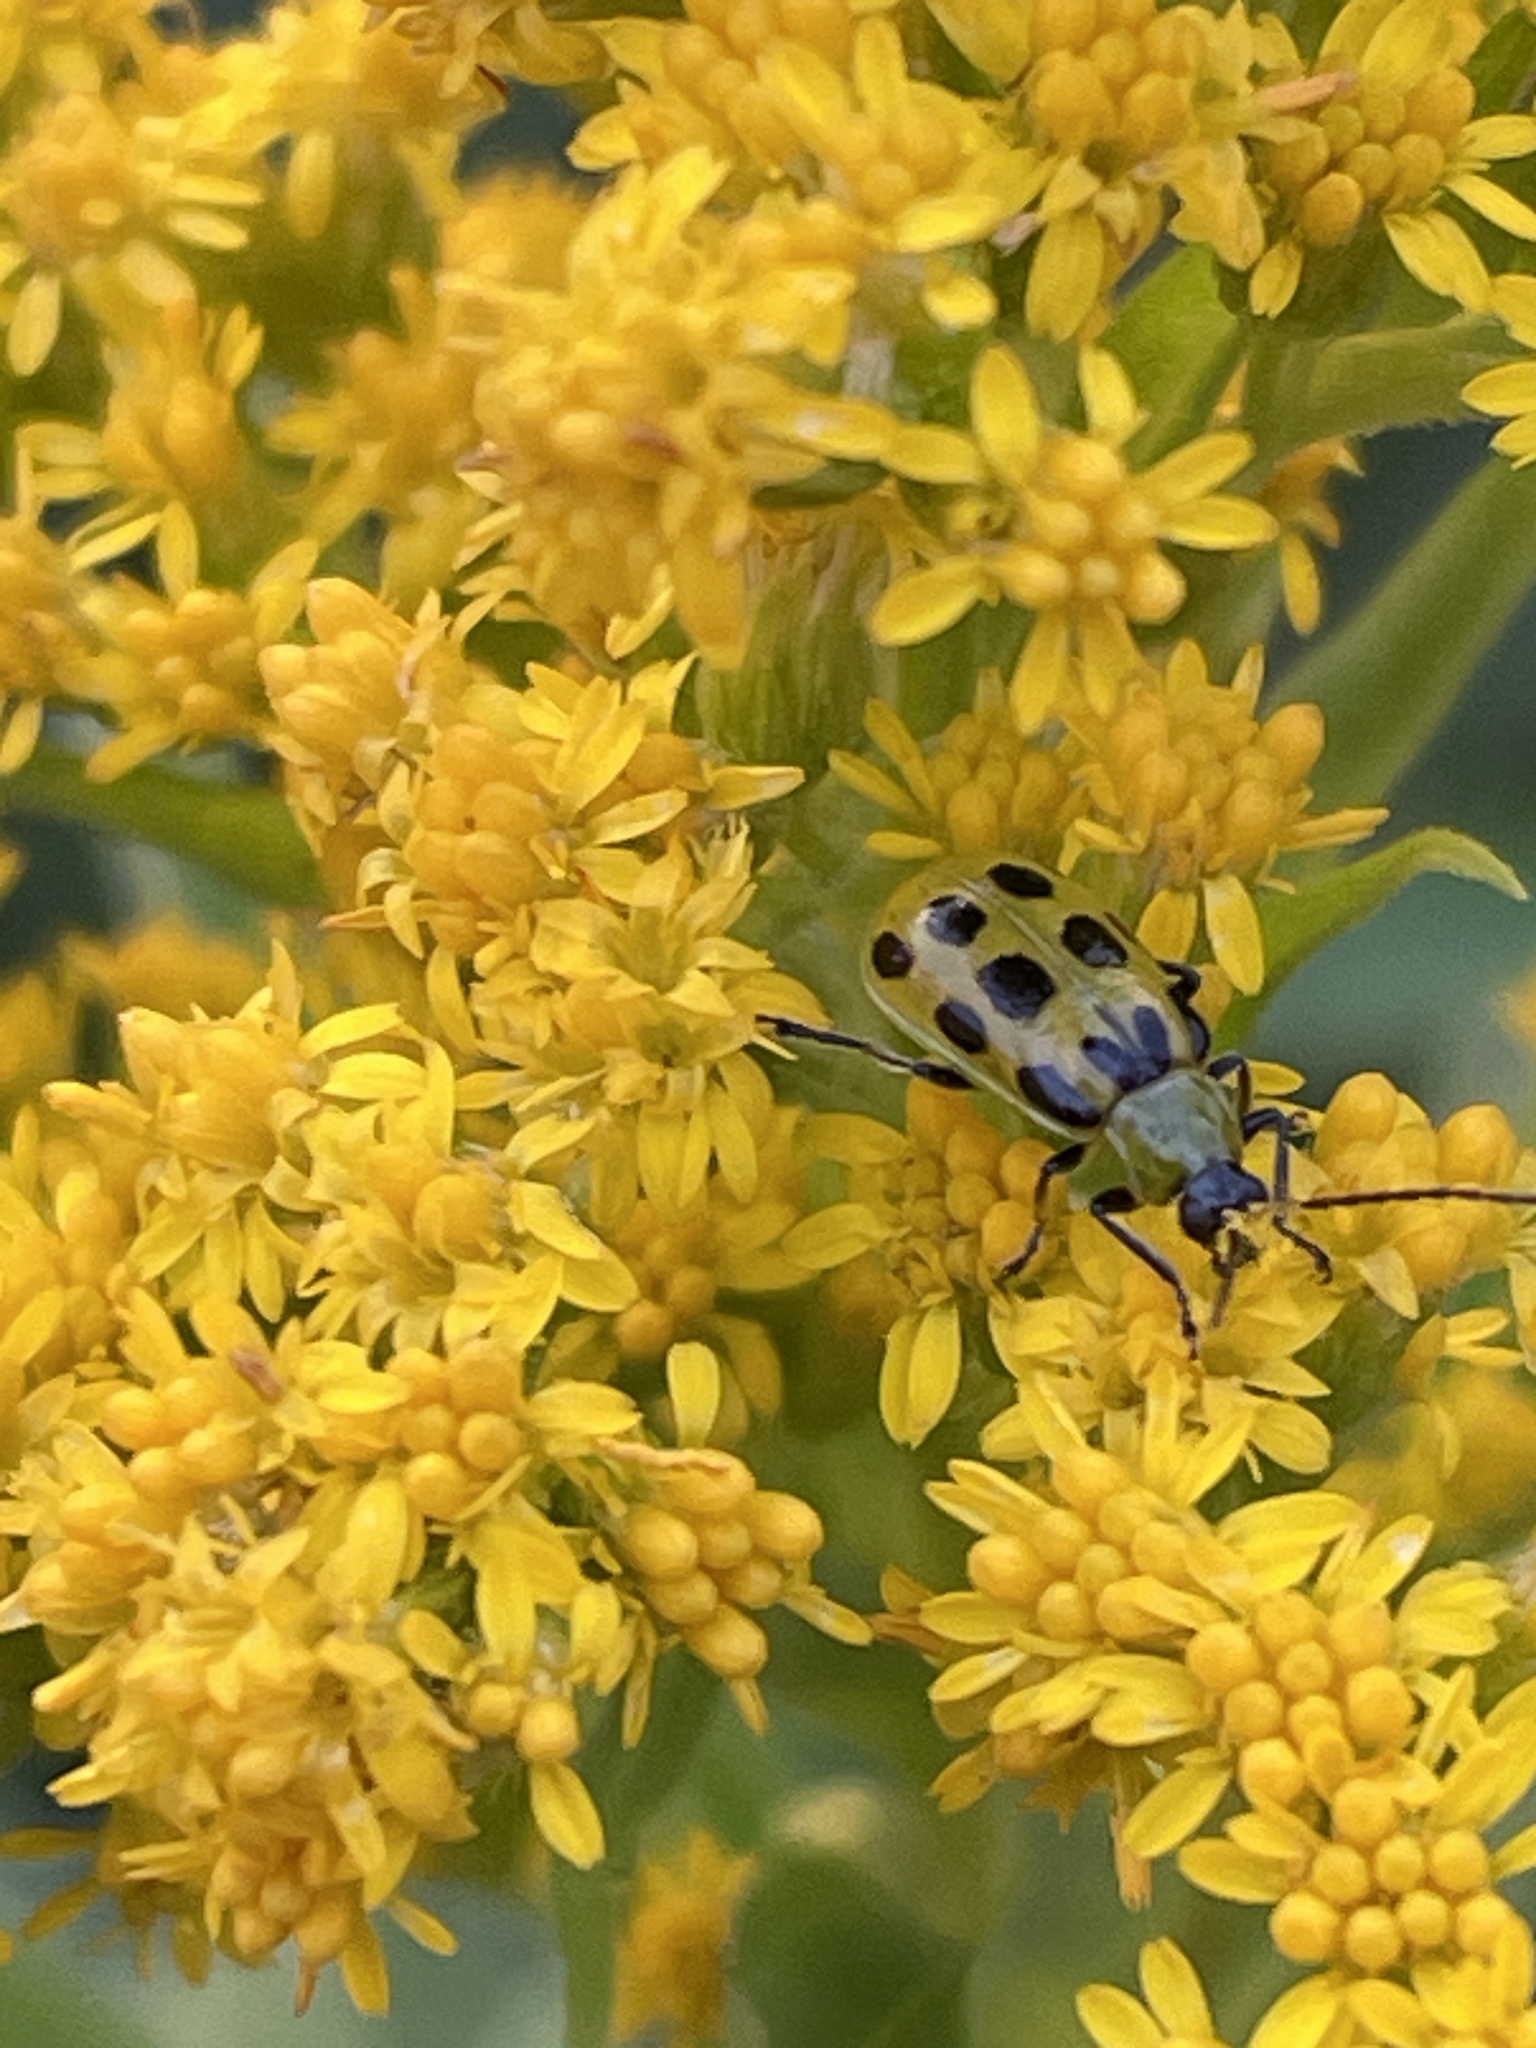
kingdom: Animalia
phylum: Arthropoda
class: Insecta
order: Coleoptera
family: Chrysomelidae
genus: Diabrotica
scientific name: Diabrotica undecimpunctata
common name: Spotted cucumber beetle
